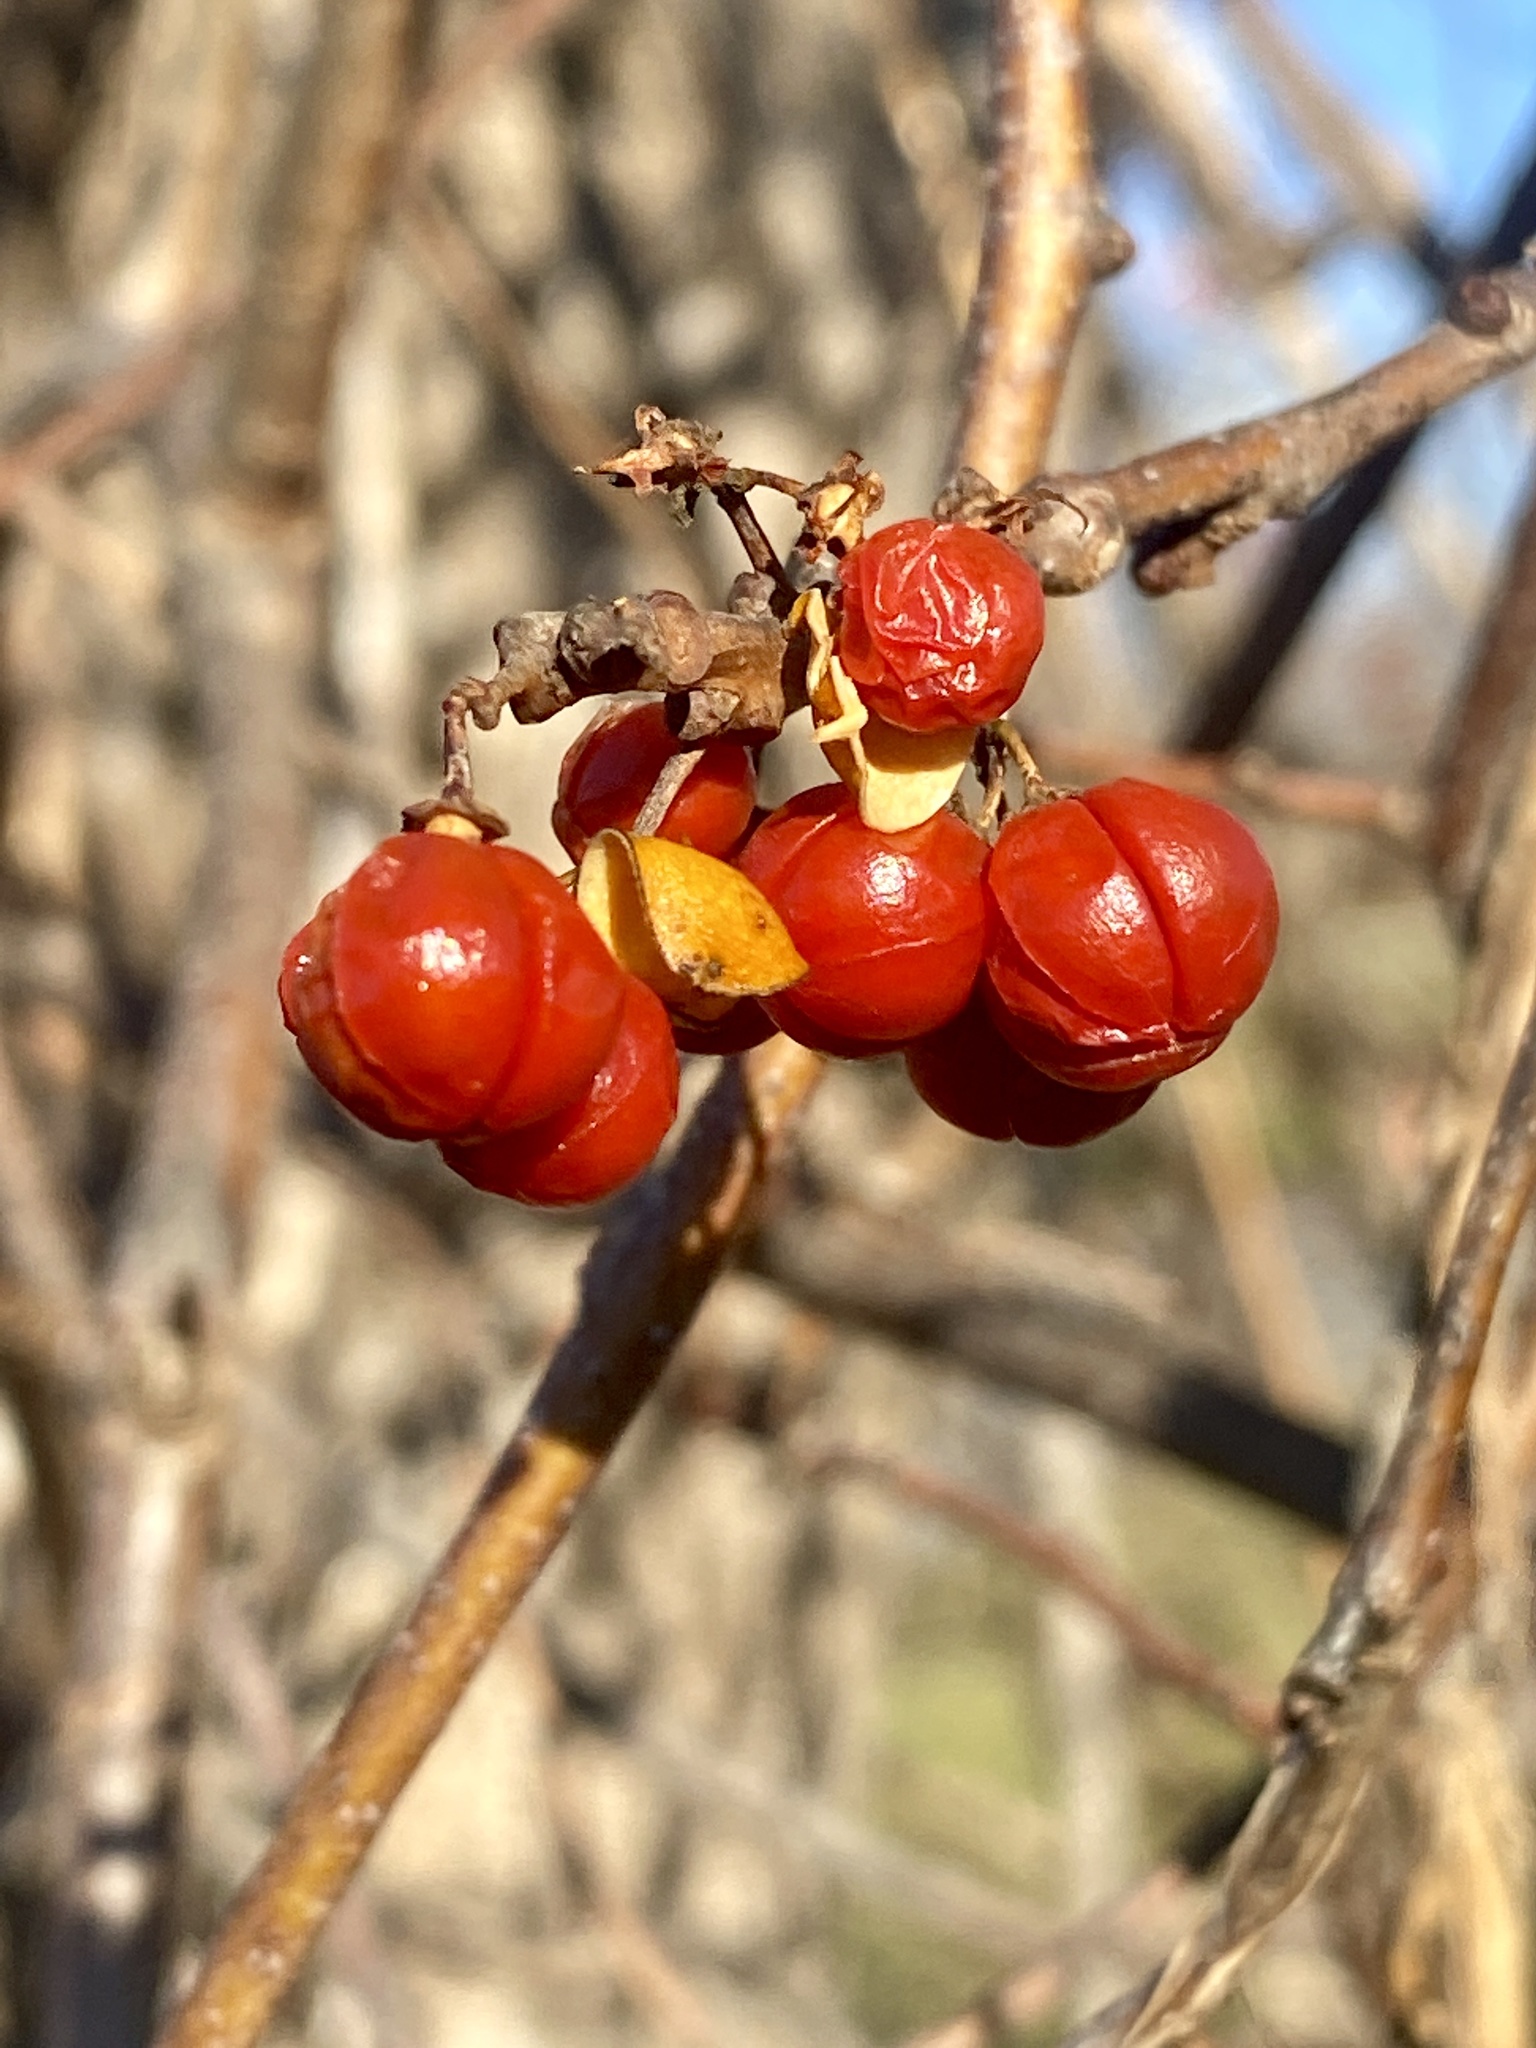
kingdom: Plantae
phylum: Tracheophyta
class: Magnoliopsida
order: Celastrales
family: Celastraceae
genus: Celastrus
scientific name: Celastrus orbiculatus
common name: Oriental bittersweet
